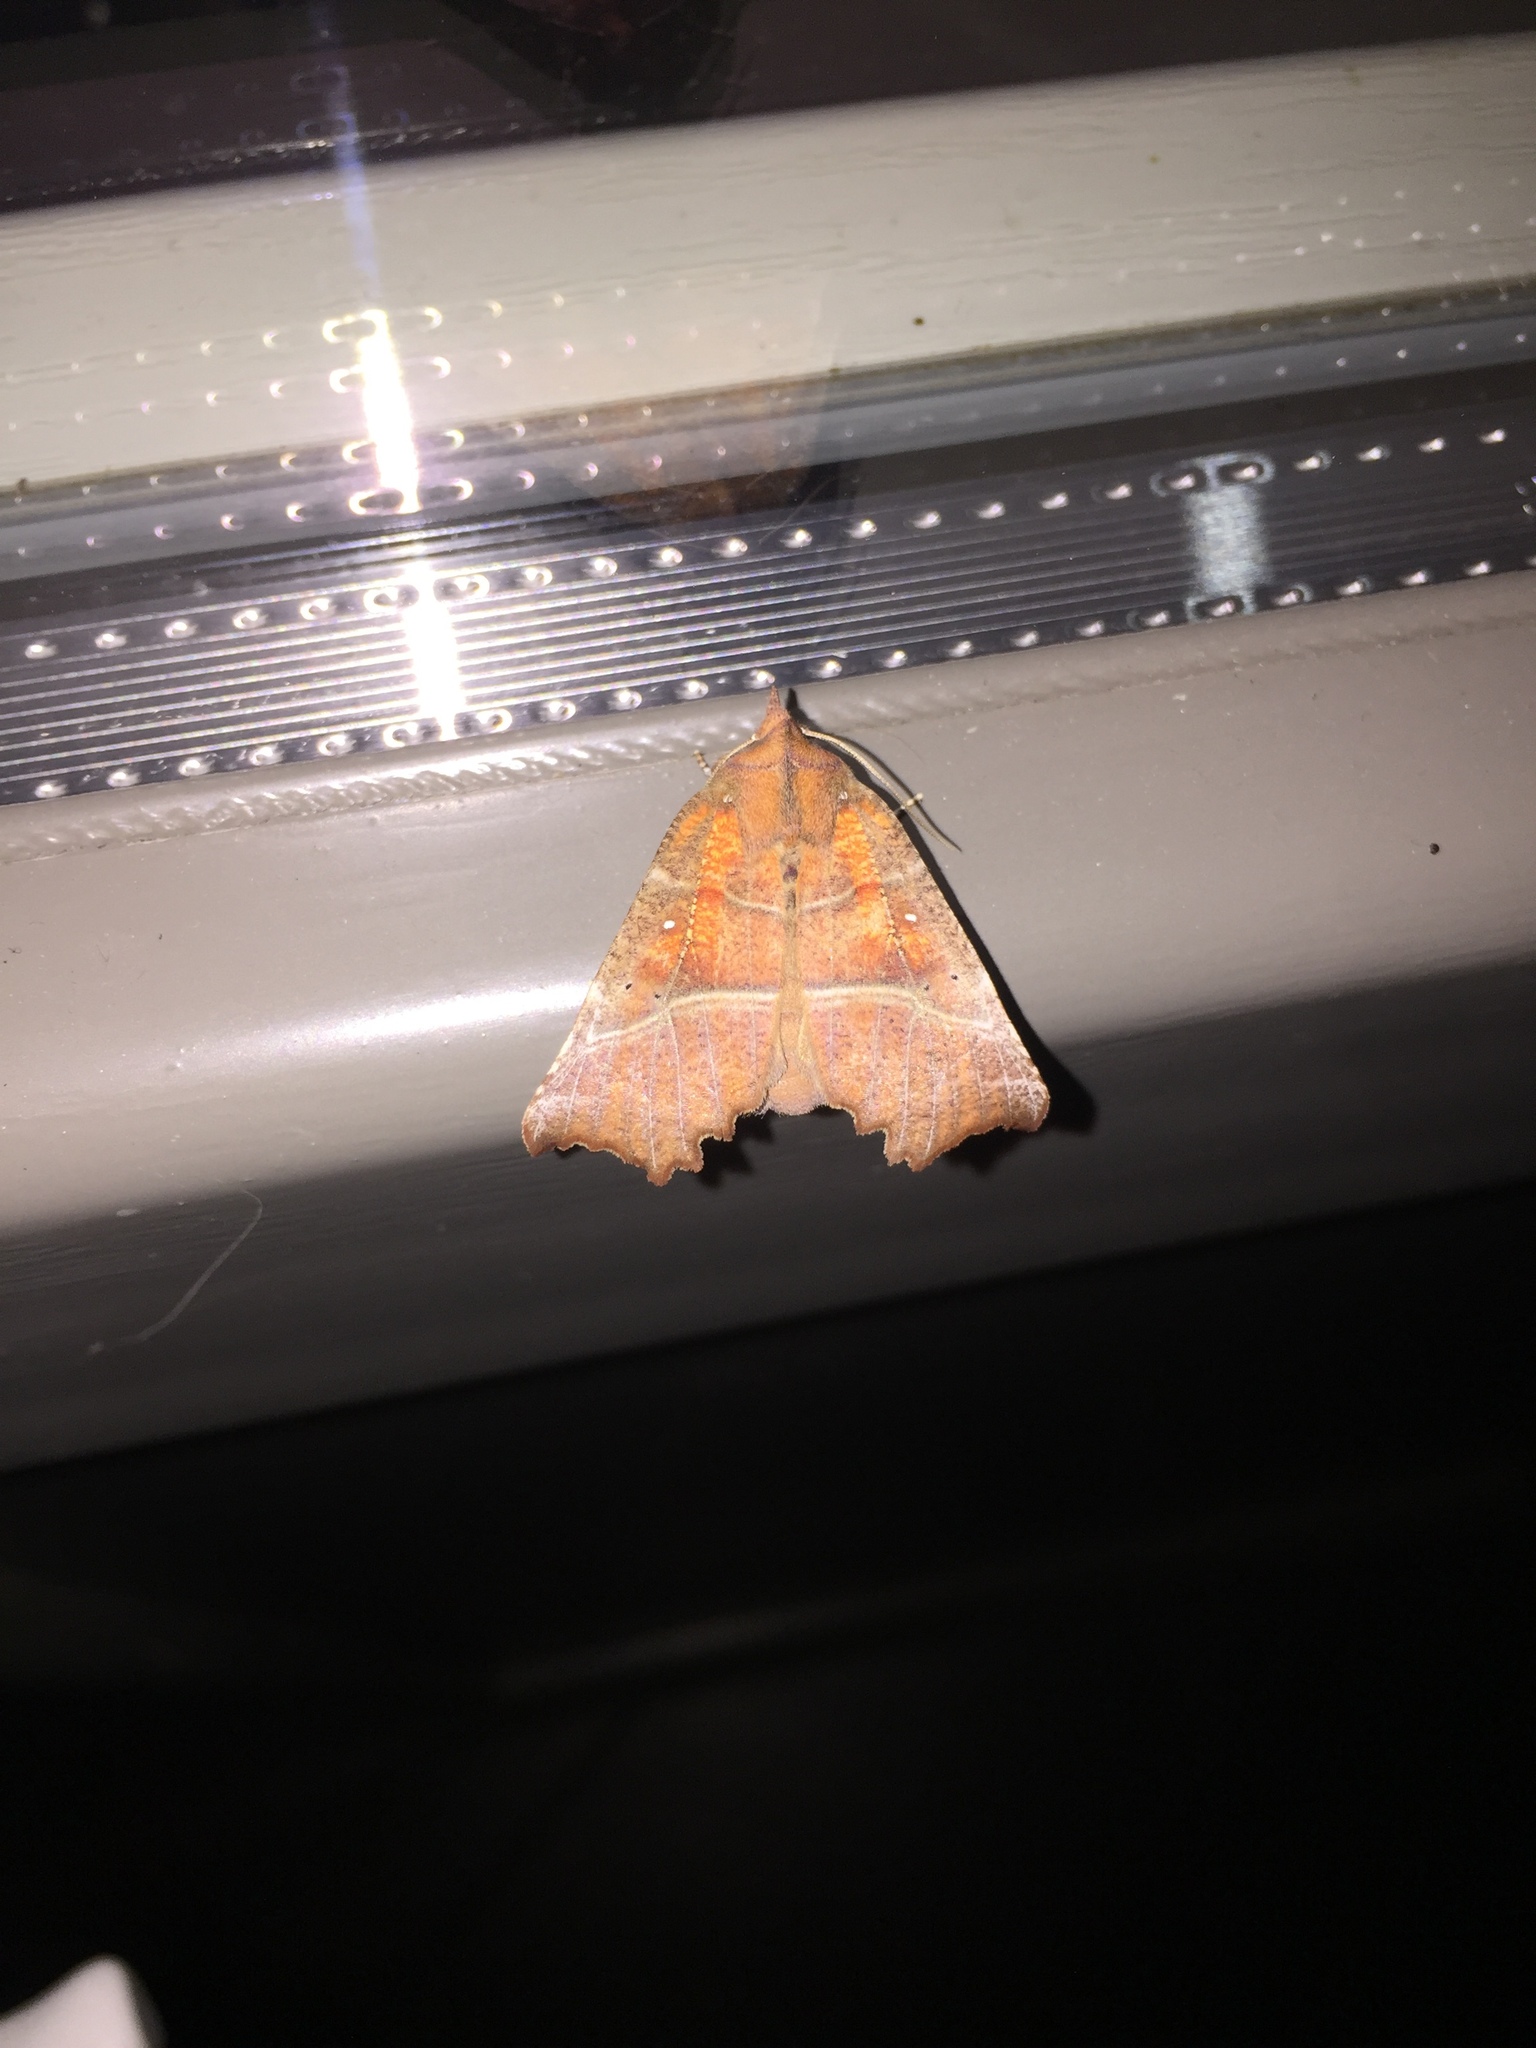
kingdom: Animalia
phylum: Arthropoda
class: Insecta
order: Lepidoptera
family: Erebidae
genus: Scoliopteryx
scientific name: Scoliopteryx libatrix
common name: Herald
